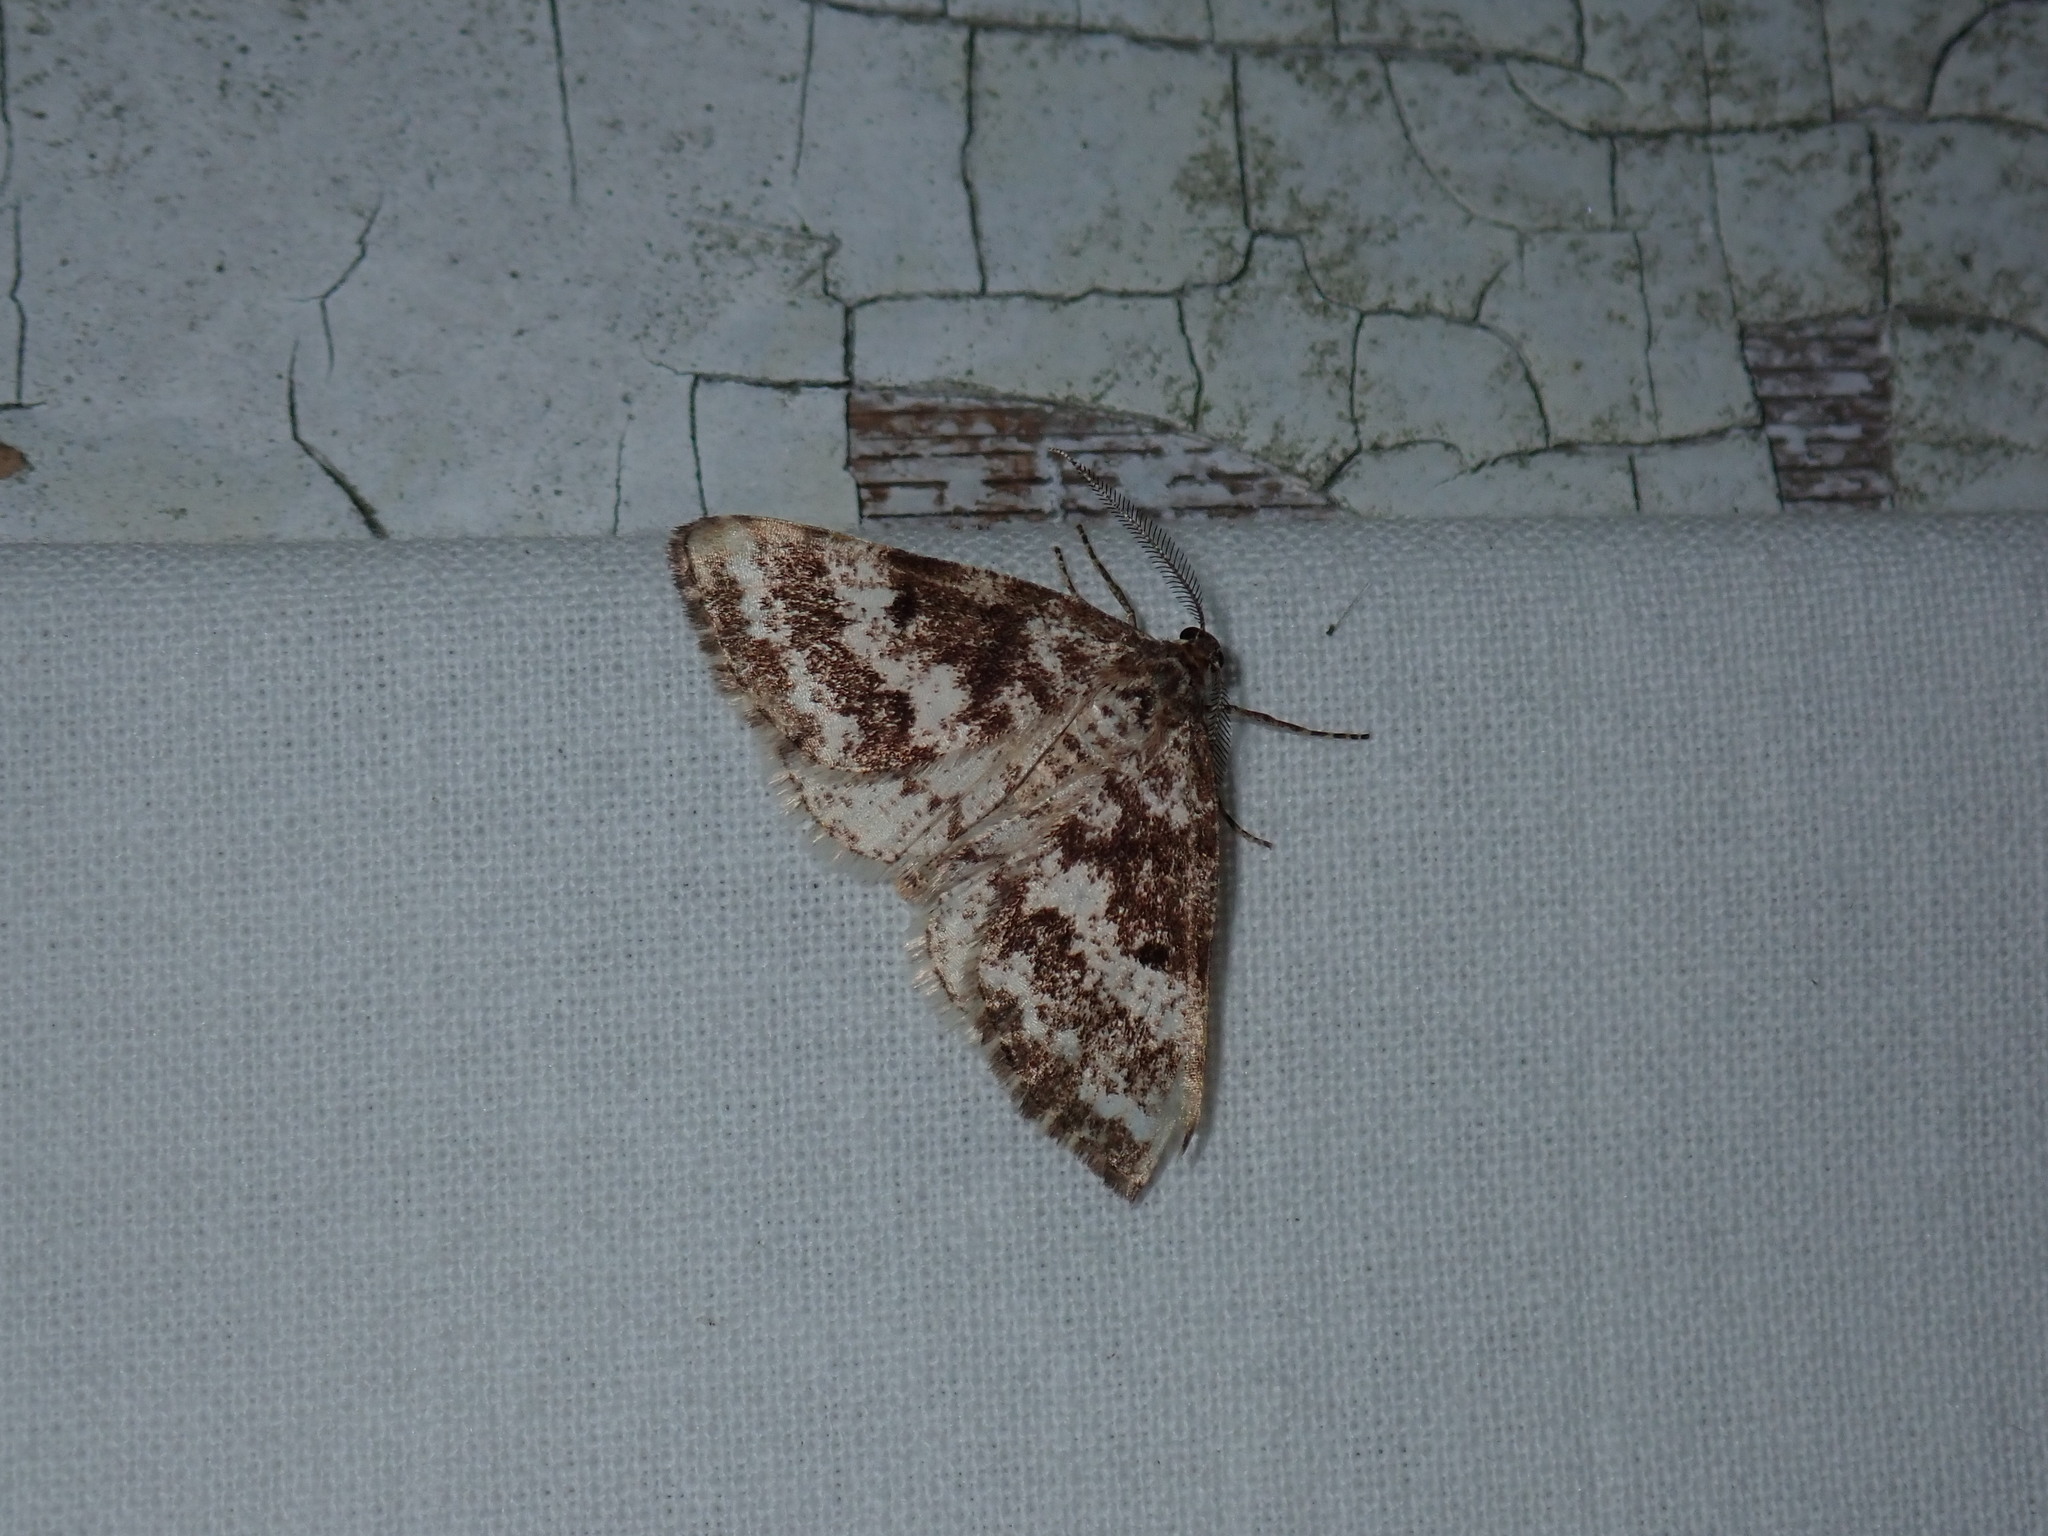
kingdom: Animalia
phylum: Arthropoda
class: Insecta
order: Lepidoptera
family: Geometridae
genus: Eufidonia
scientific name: Eufidonia notataria
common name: Powder moth
